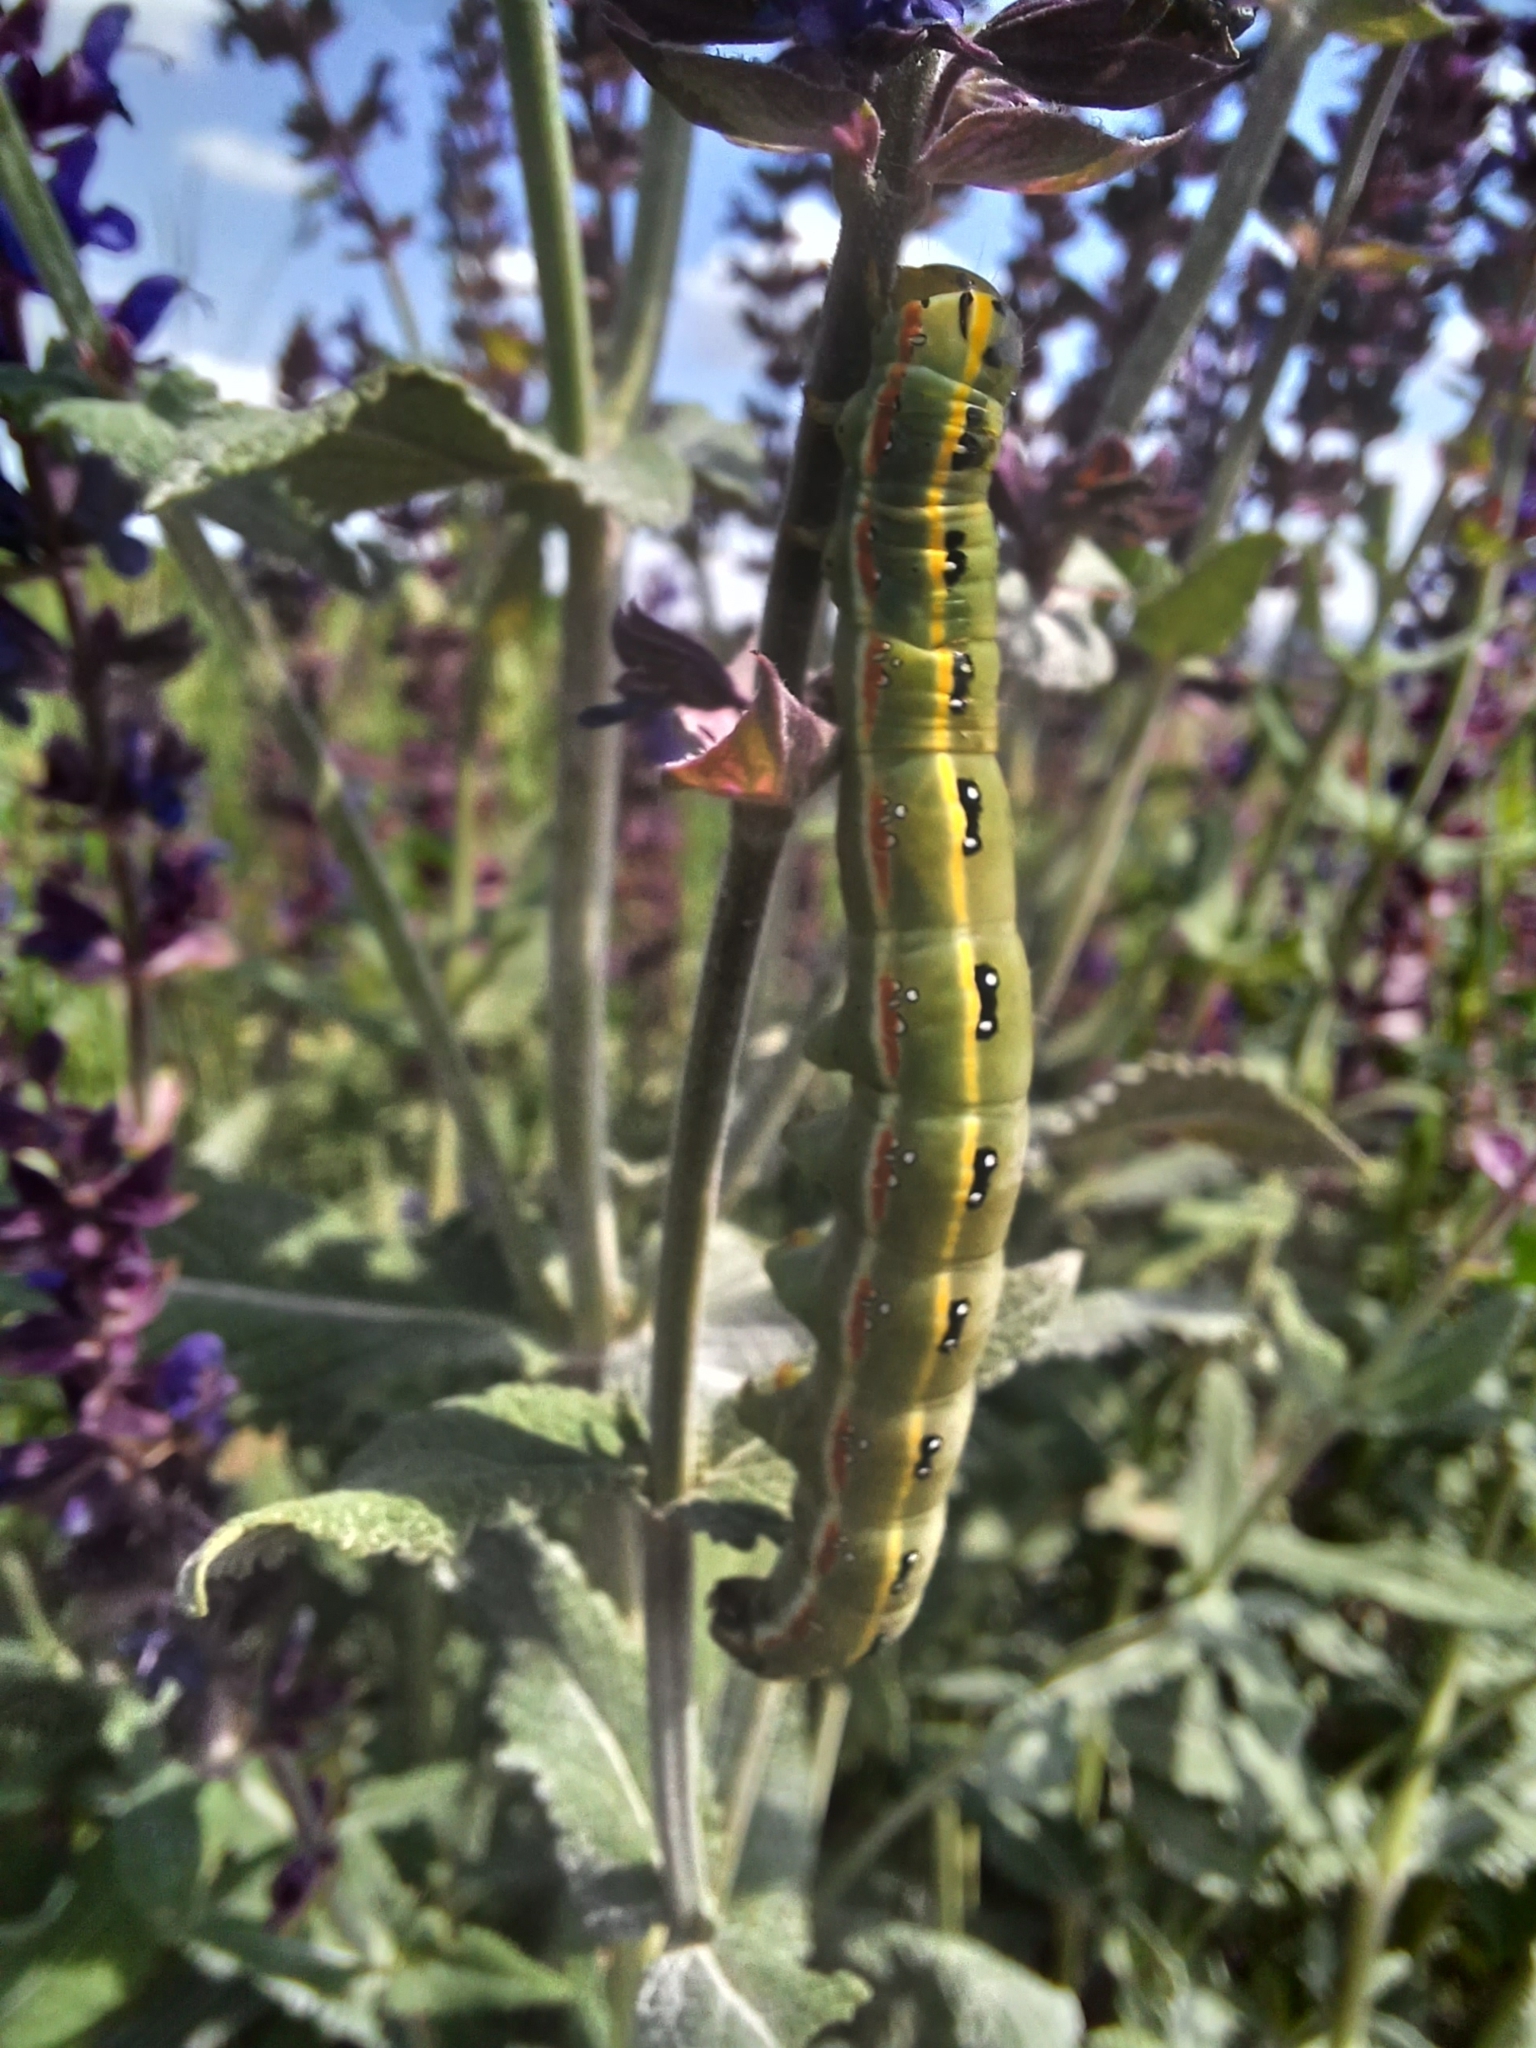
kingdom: Animalia
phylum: Arthropoda
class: Insecta
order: Lepidoptera
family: Noctuidae
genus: Xylena
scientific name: Xylena exsoleta
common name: Sword-grass
